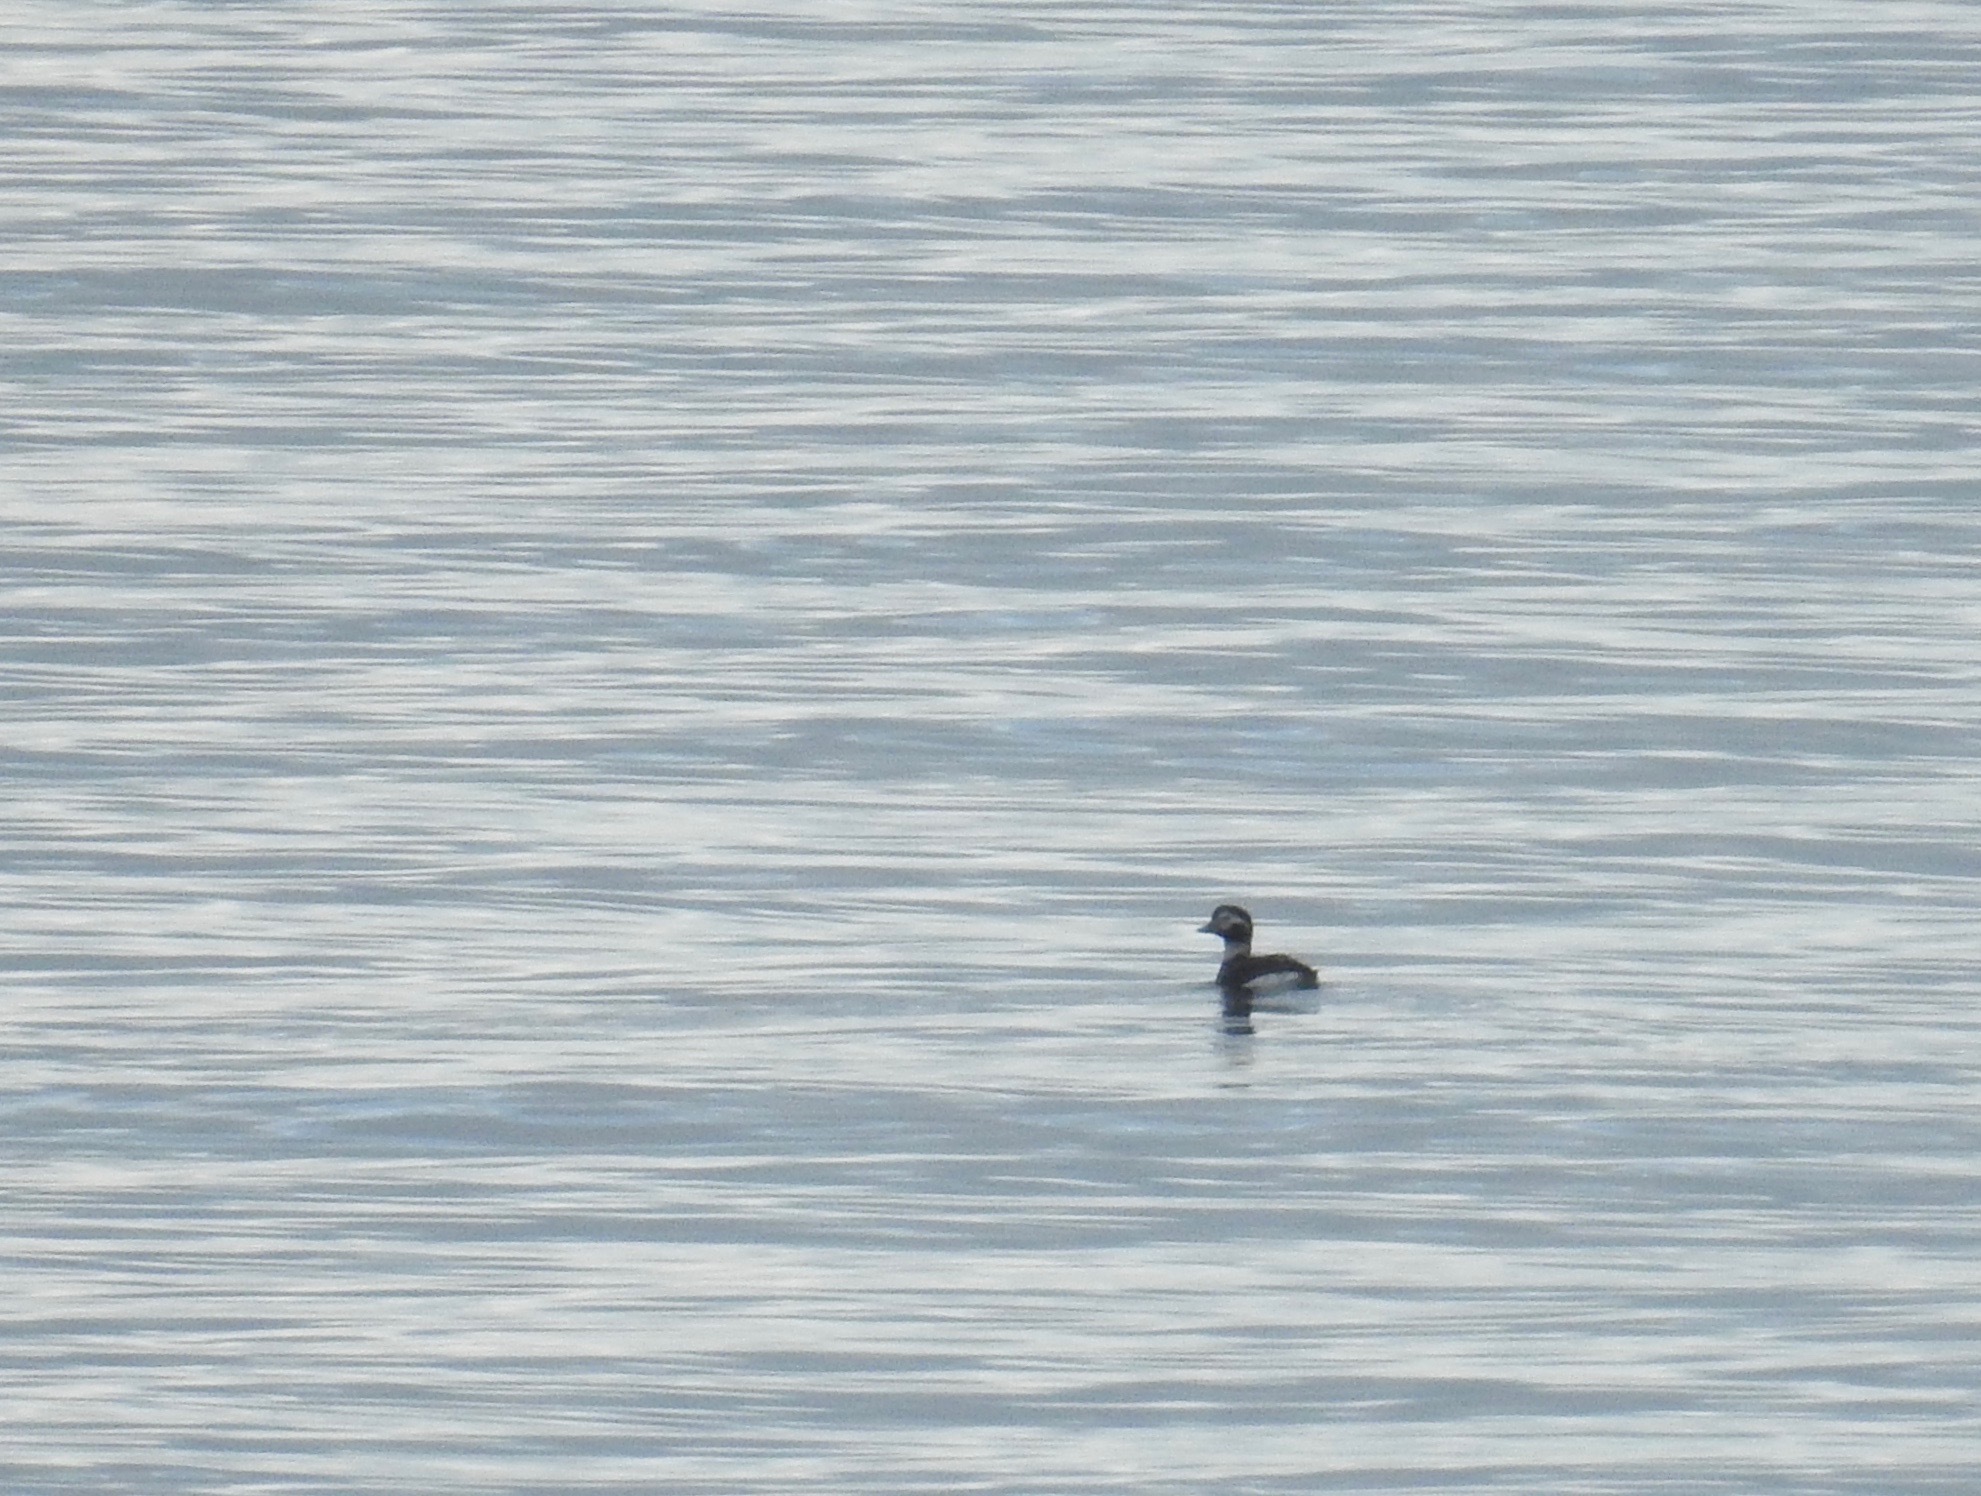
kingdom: Animalia
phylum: Chordata
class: Aves
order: Anseriformes
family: Anatidae
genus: Clangula
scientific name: Clangula hyemalis
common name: Long-tailed duck
